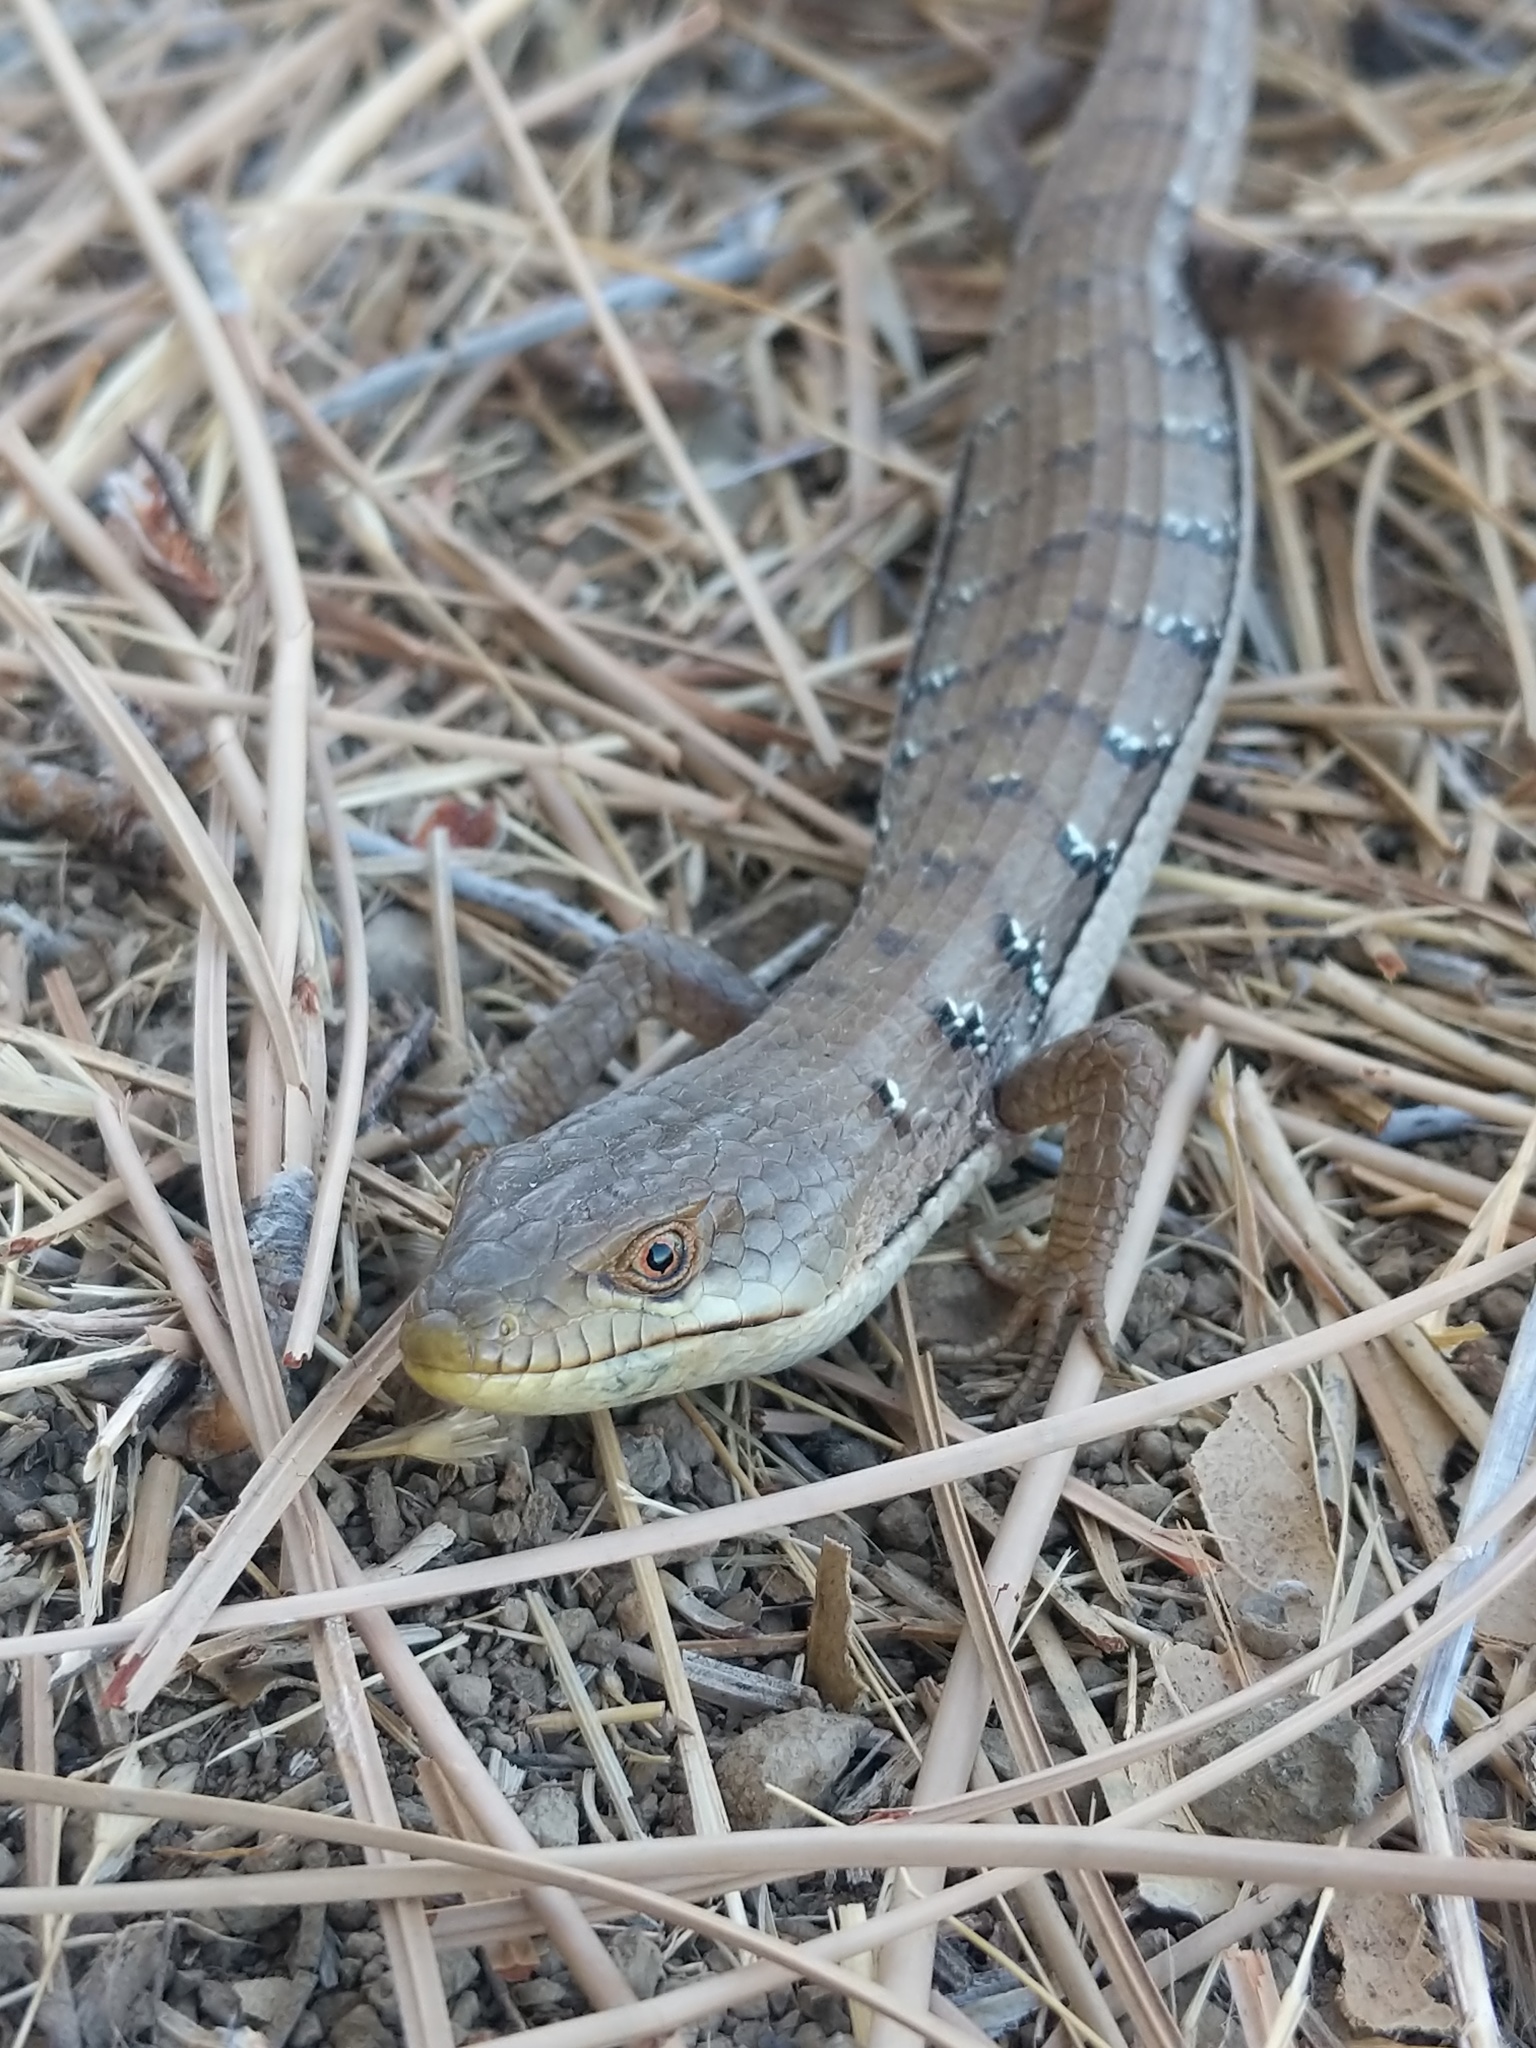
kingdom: Animalia
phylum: Chordata
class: Squamata
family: Anguidae
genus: Elgaria
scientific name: Elgaria multicarinata
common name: Southern alligator lizard
